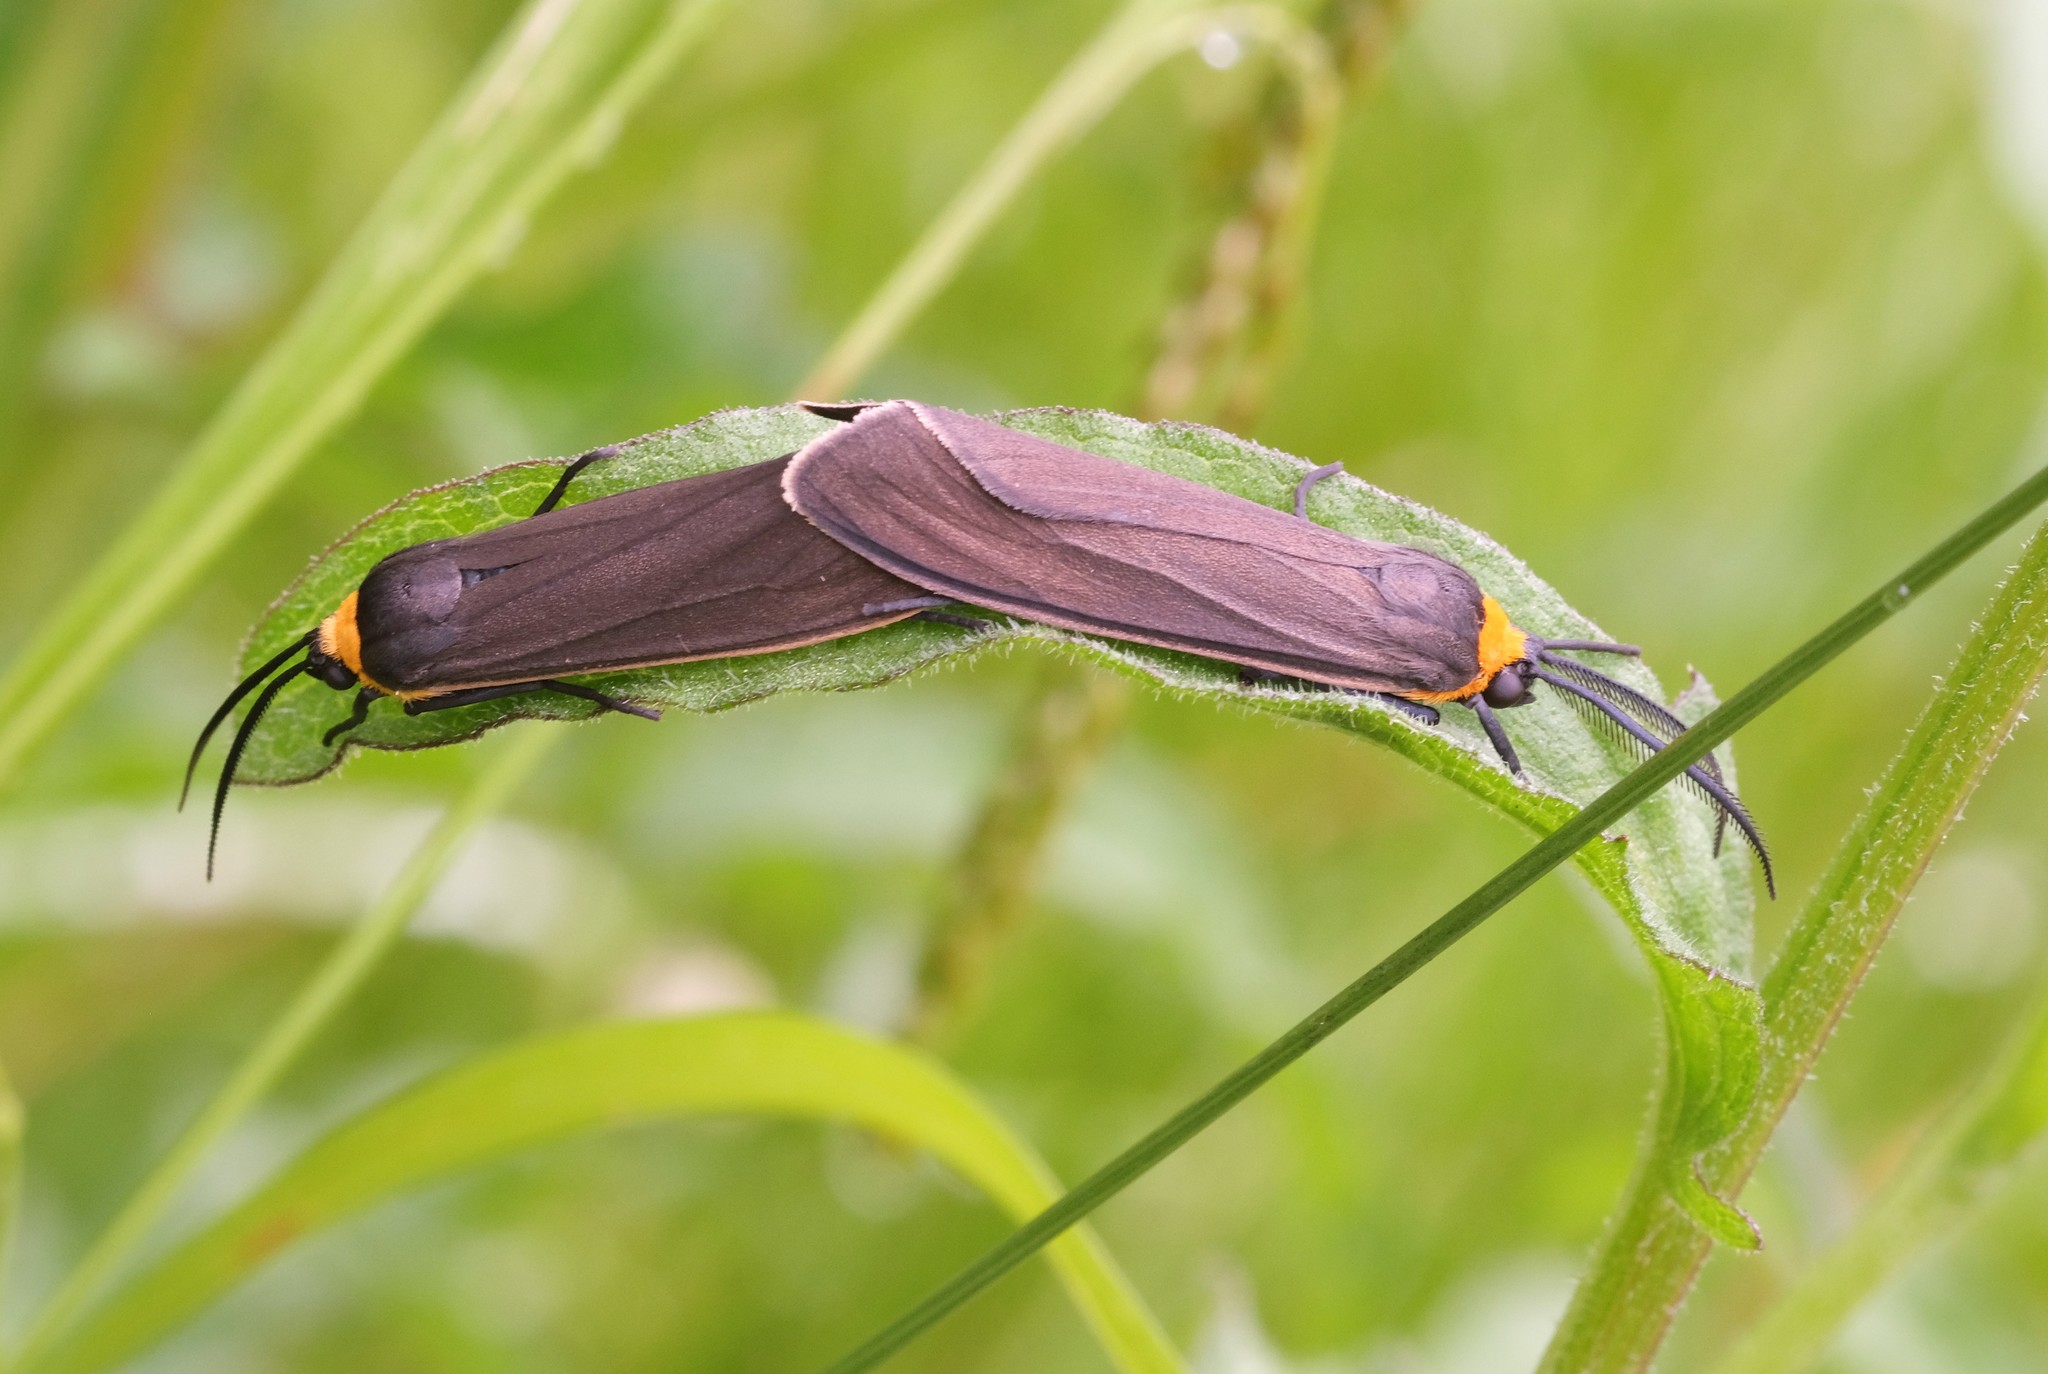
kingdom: Animalia
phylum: Arthropoda
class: Insecta
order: Lepidoptera
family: Erebidae
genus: Cisseps
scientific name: Cisseps fulvicollis
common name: Yellow-collared scape moth
